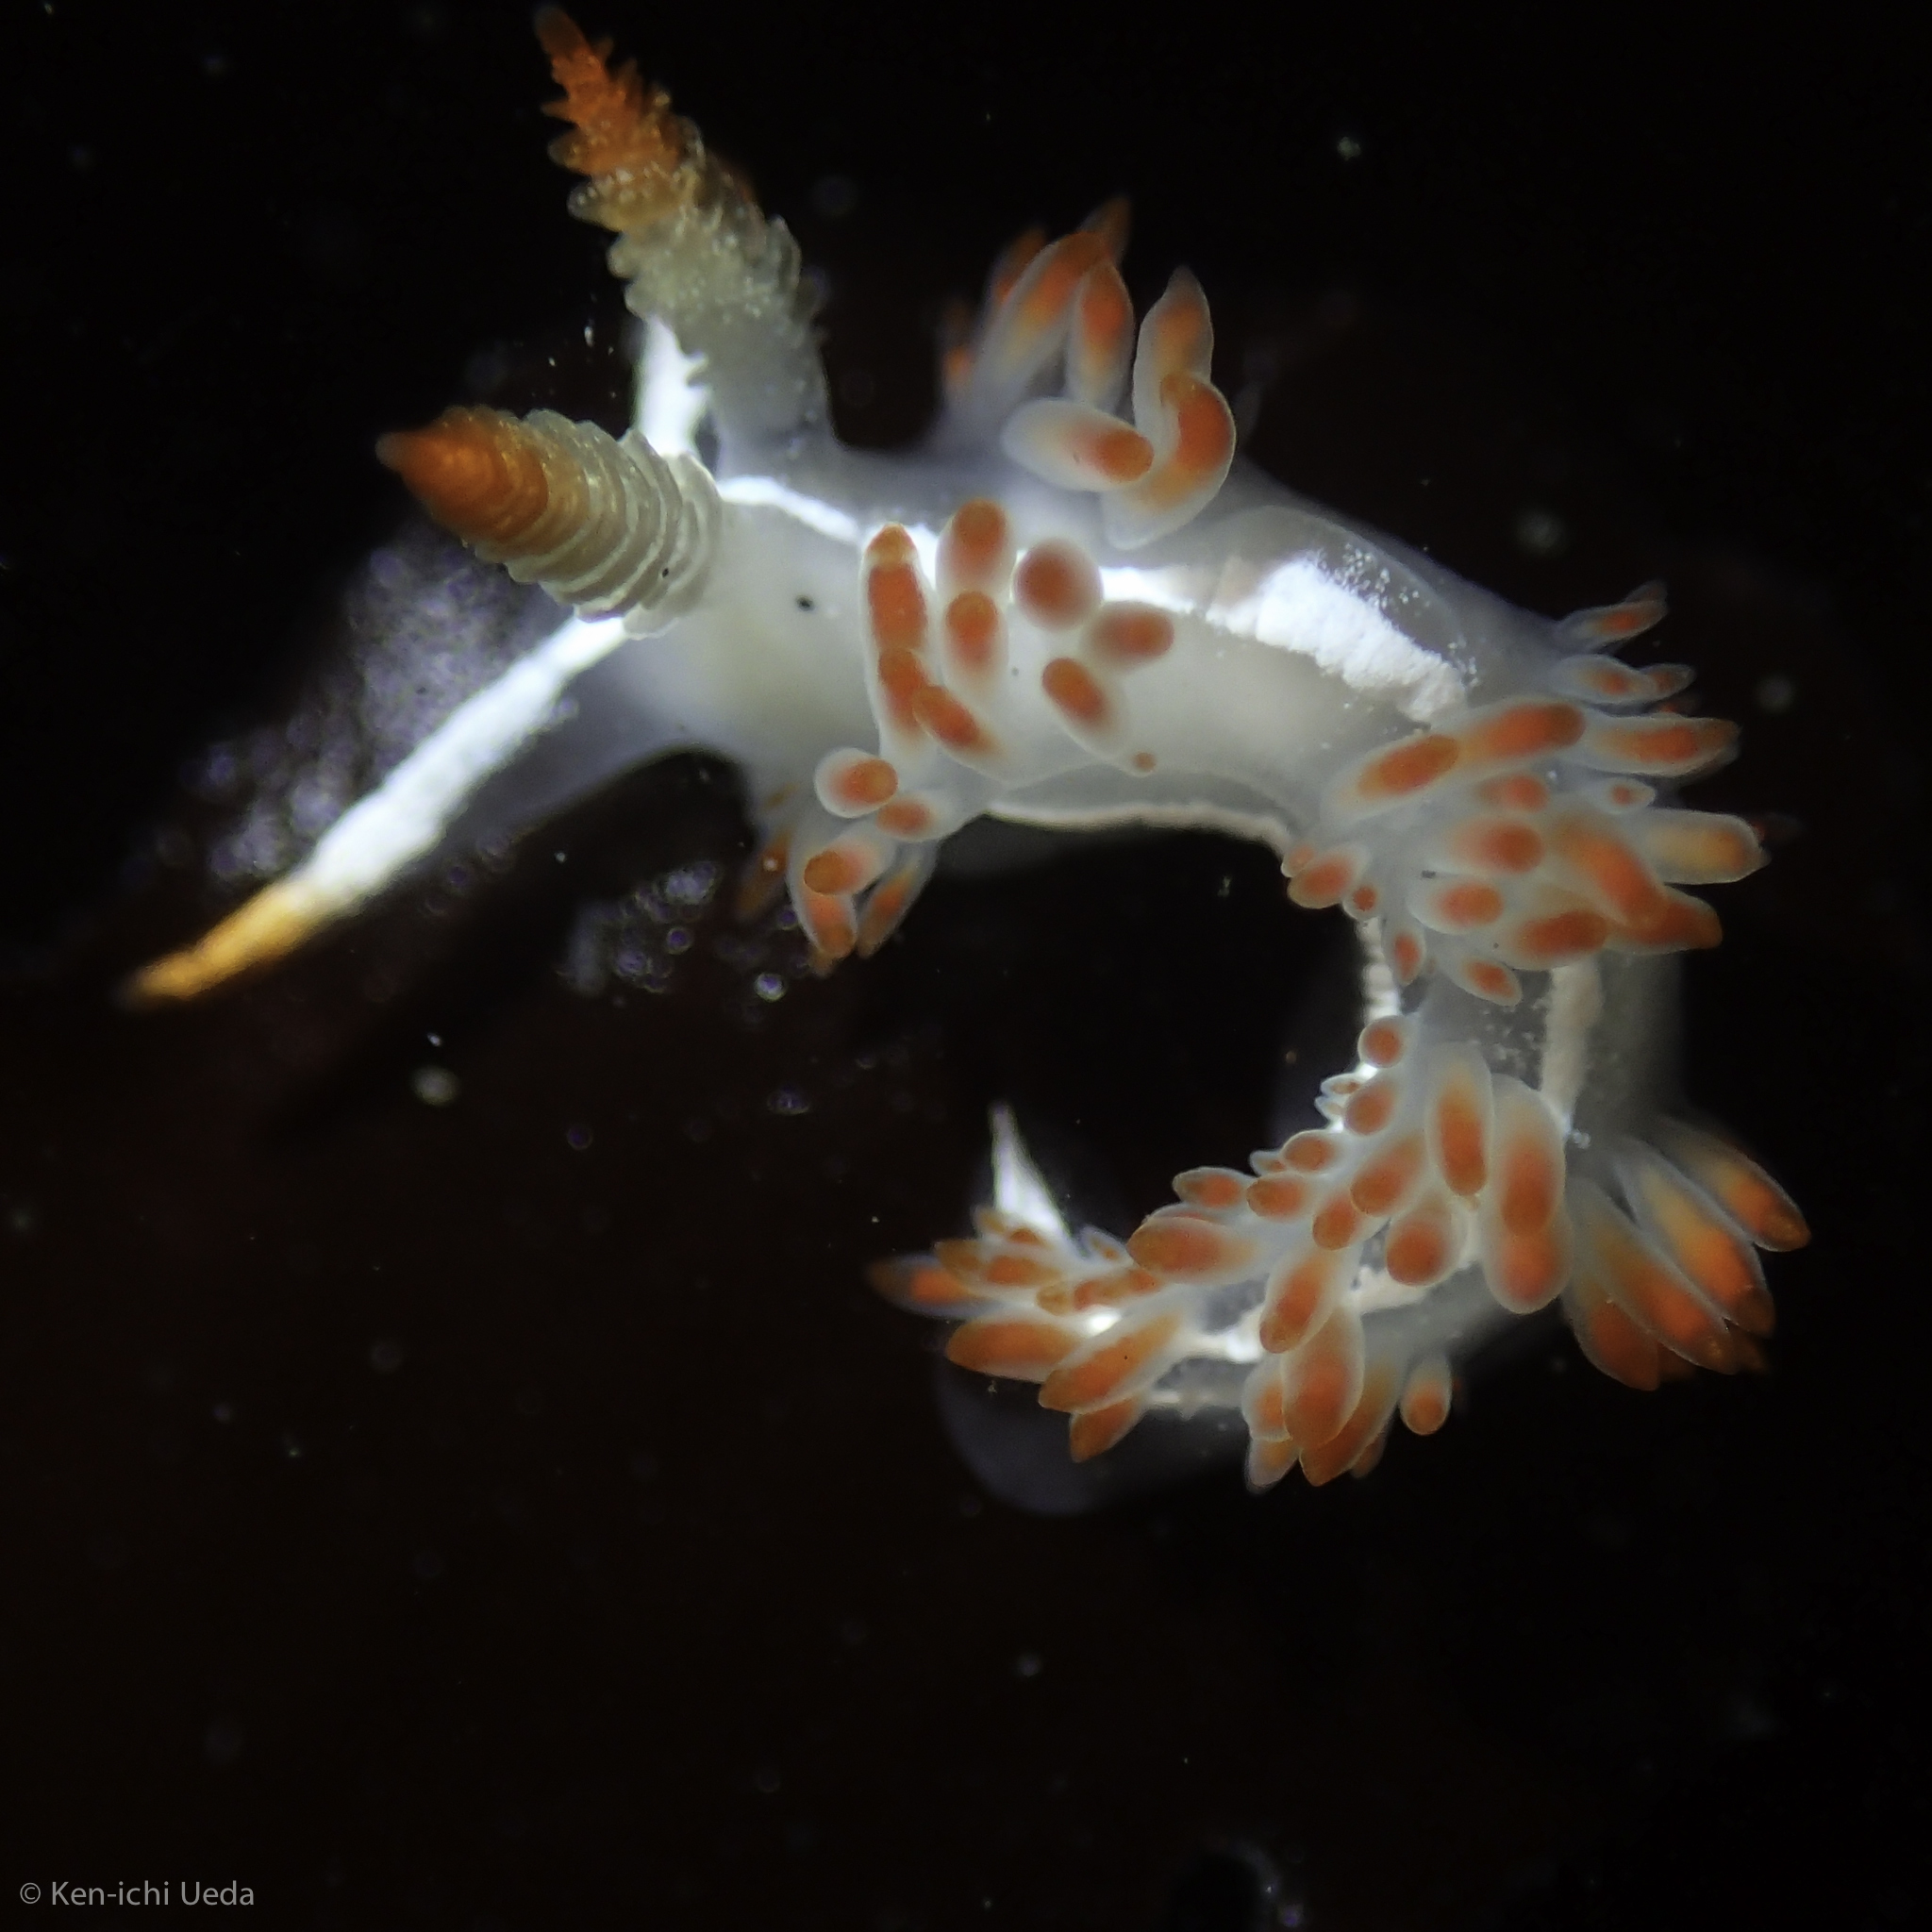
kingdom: Animalia
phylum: Mollusca
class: Gastropoda
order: Nudibranchia
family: Coryphellidae
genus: Coryphella
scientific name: Coryphella trilineata
